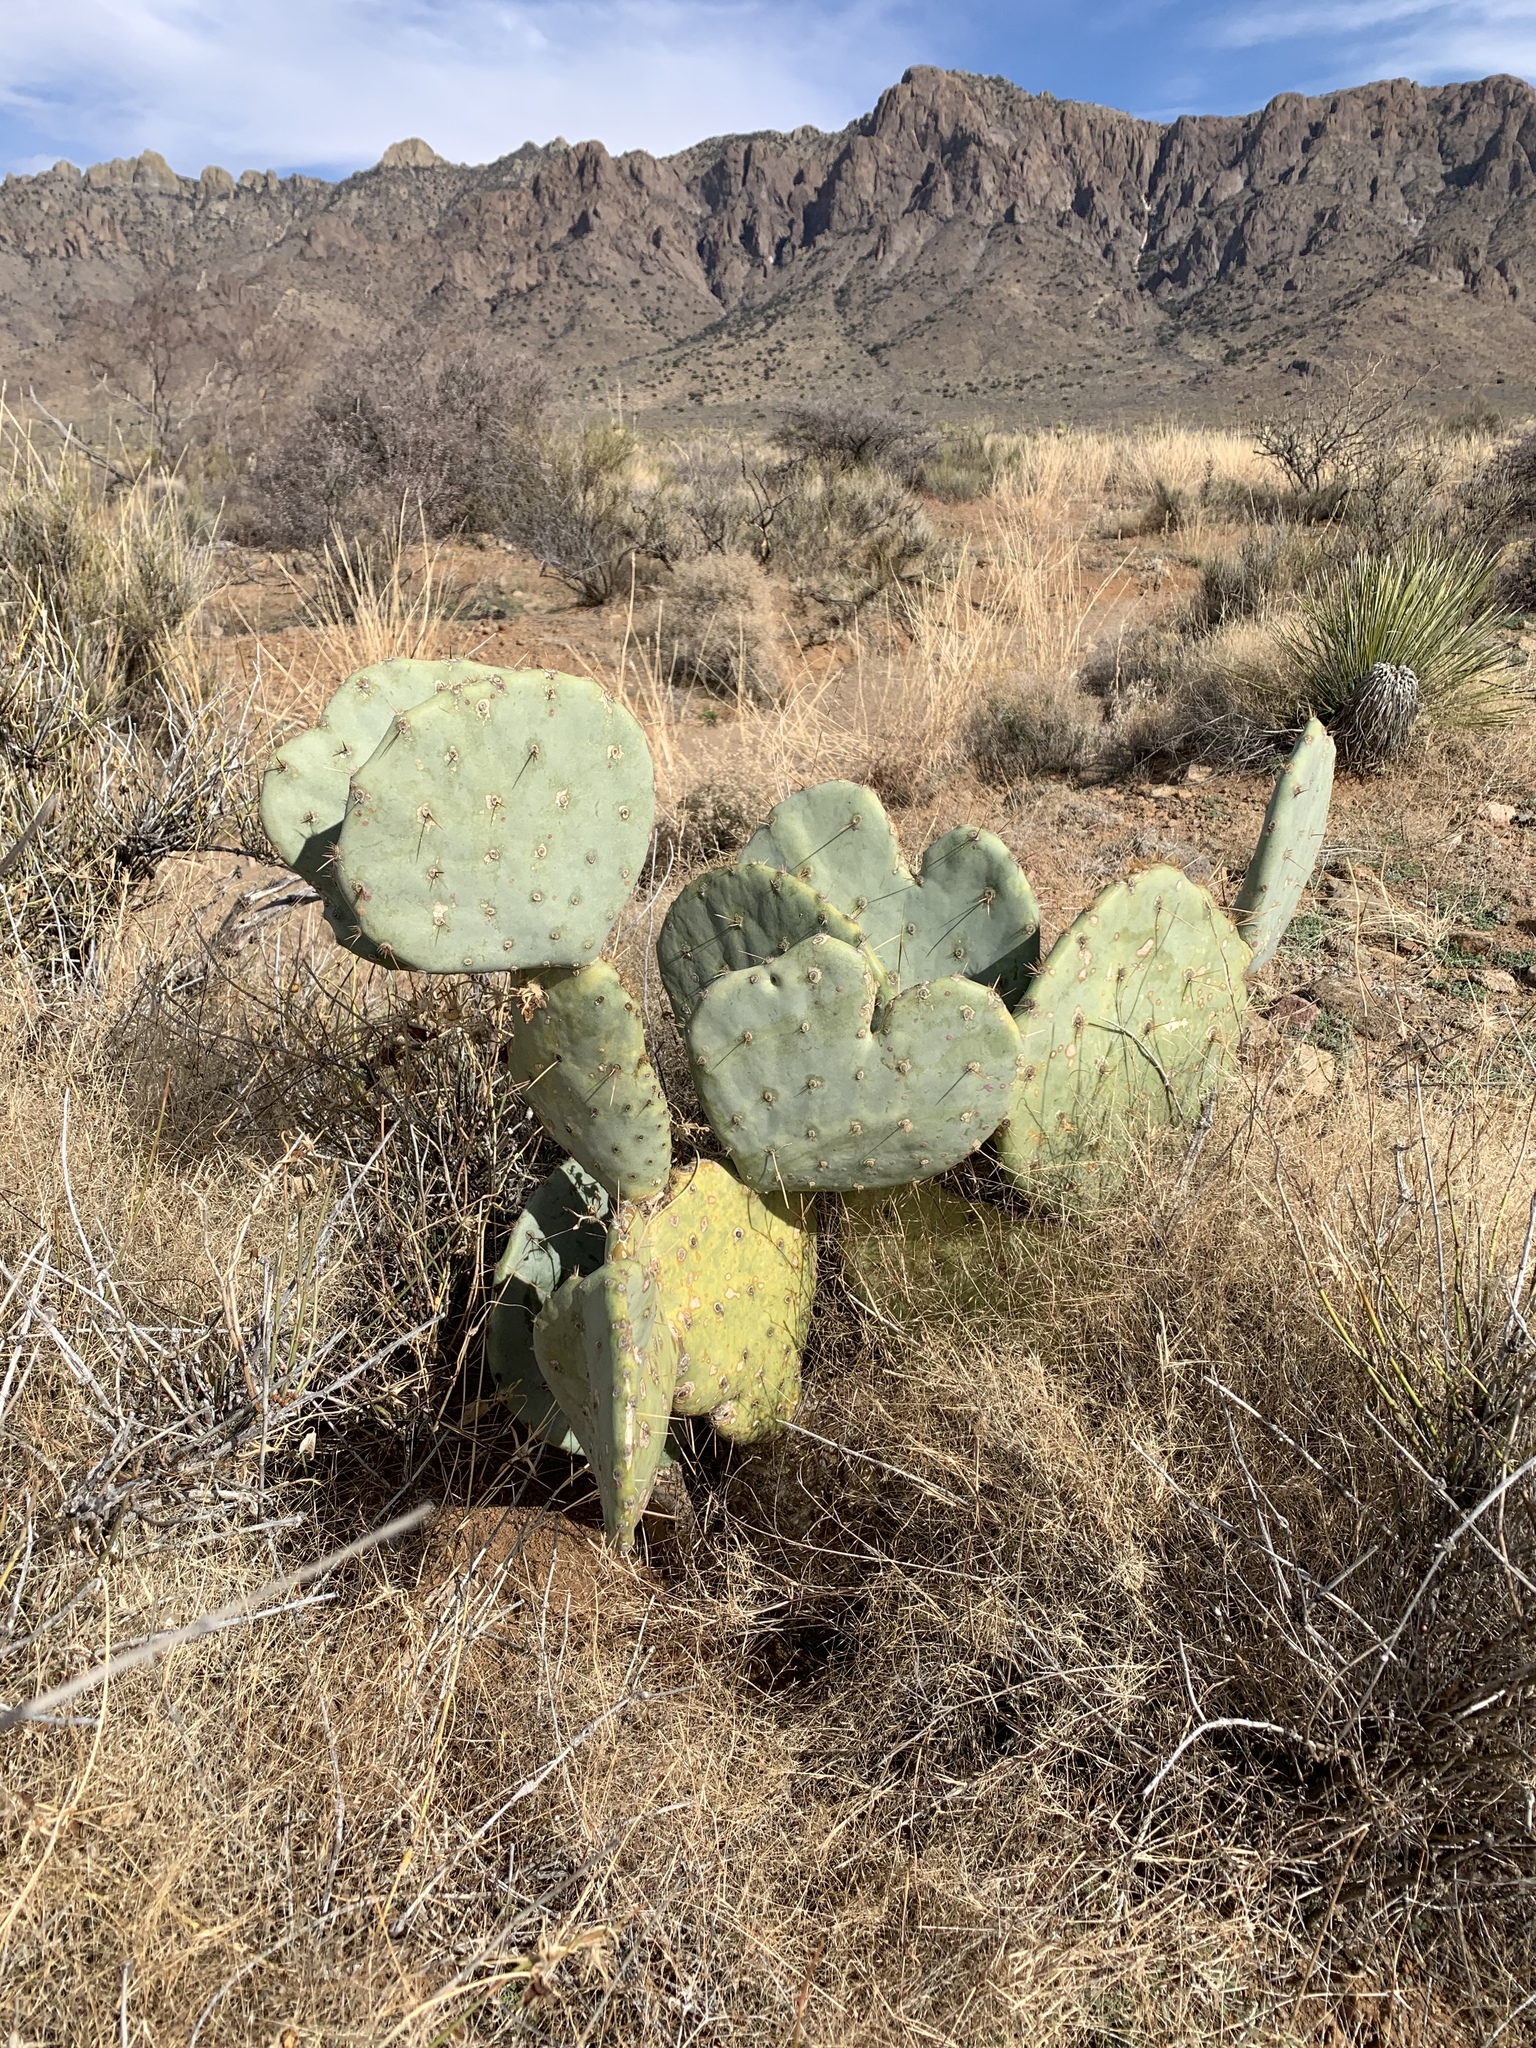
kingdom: Plantae
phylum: Tracheophyta
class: Magnoliopsida
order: Caryophyllales
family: Cactaceae
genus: Opuntia
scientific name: Opuntia engelmannii
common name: Cactus-apple
